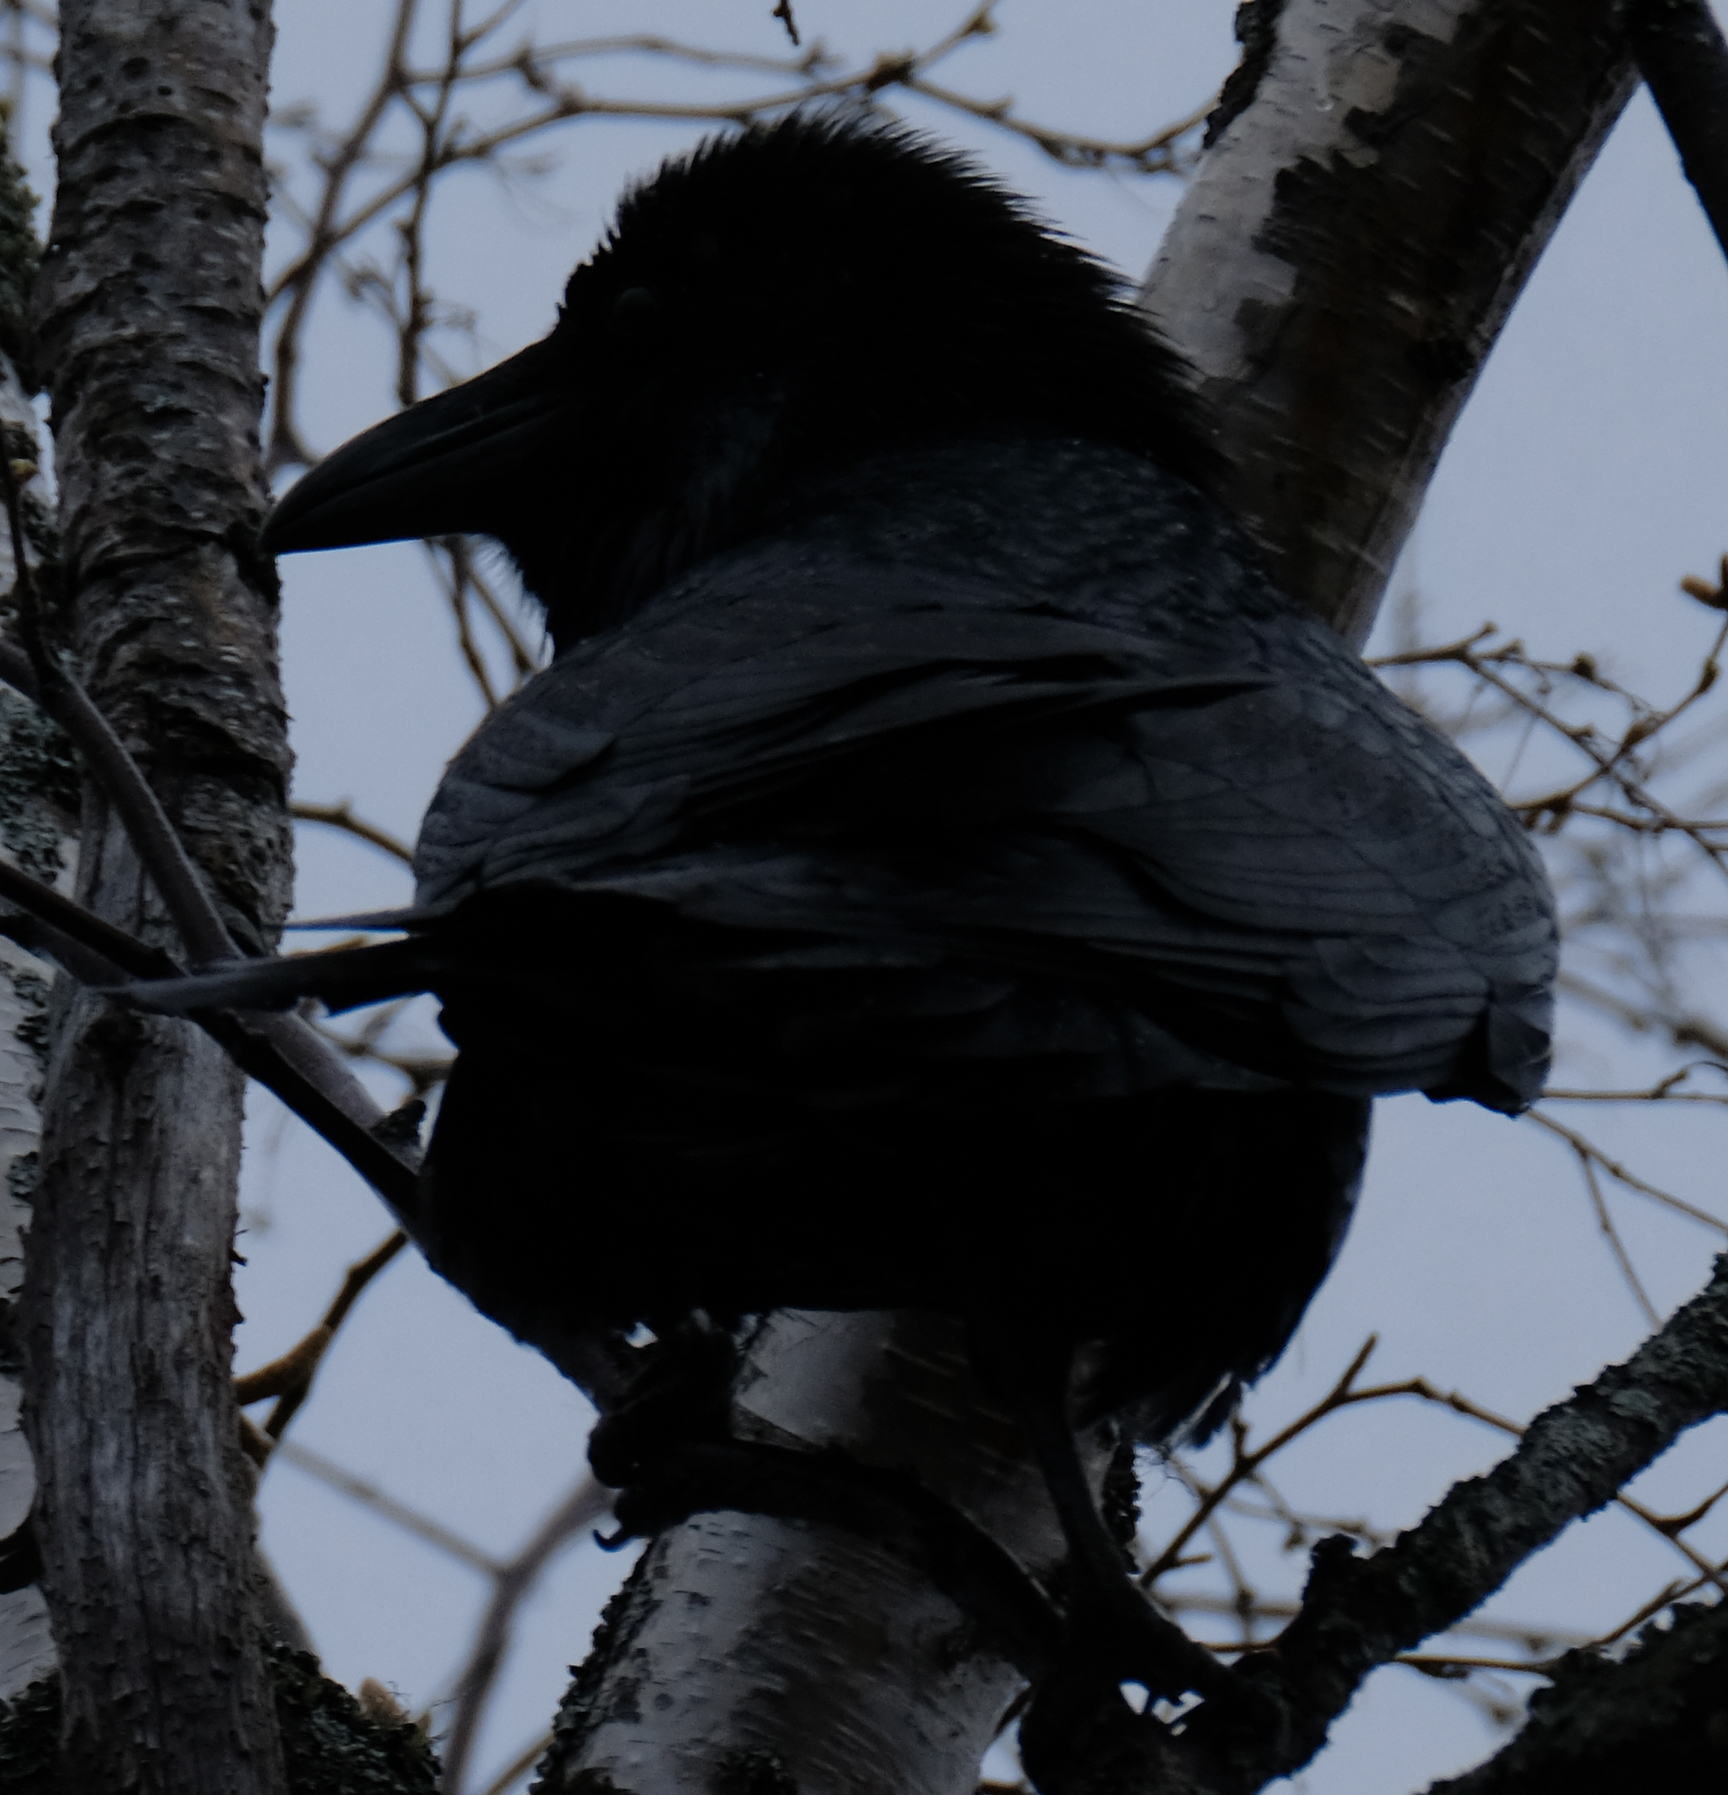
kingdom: Animalia
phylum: Chordata
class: Aves
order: Passeriformes
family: Corvidae
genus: Corvus
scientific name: Corvus corax
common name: Common raven
